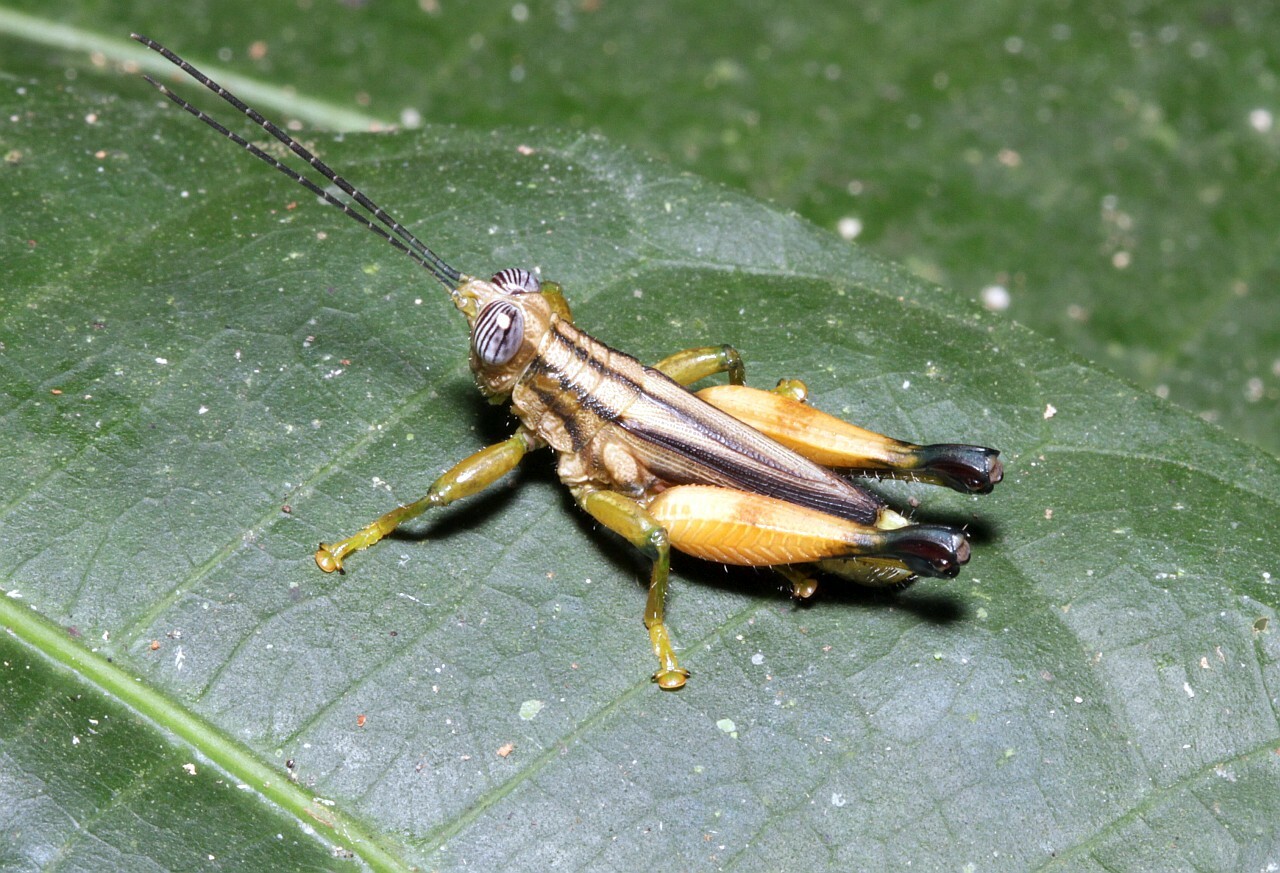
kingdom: Animalia
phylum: Arthropoda
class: Insecta
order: Orthoptera
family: Acrididae
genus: Syntomacris
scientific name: Syntomacris erythrocera
